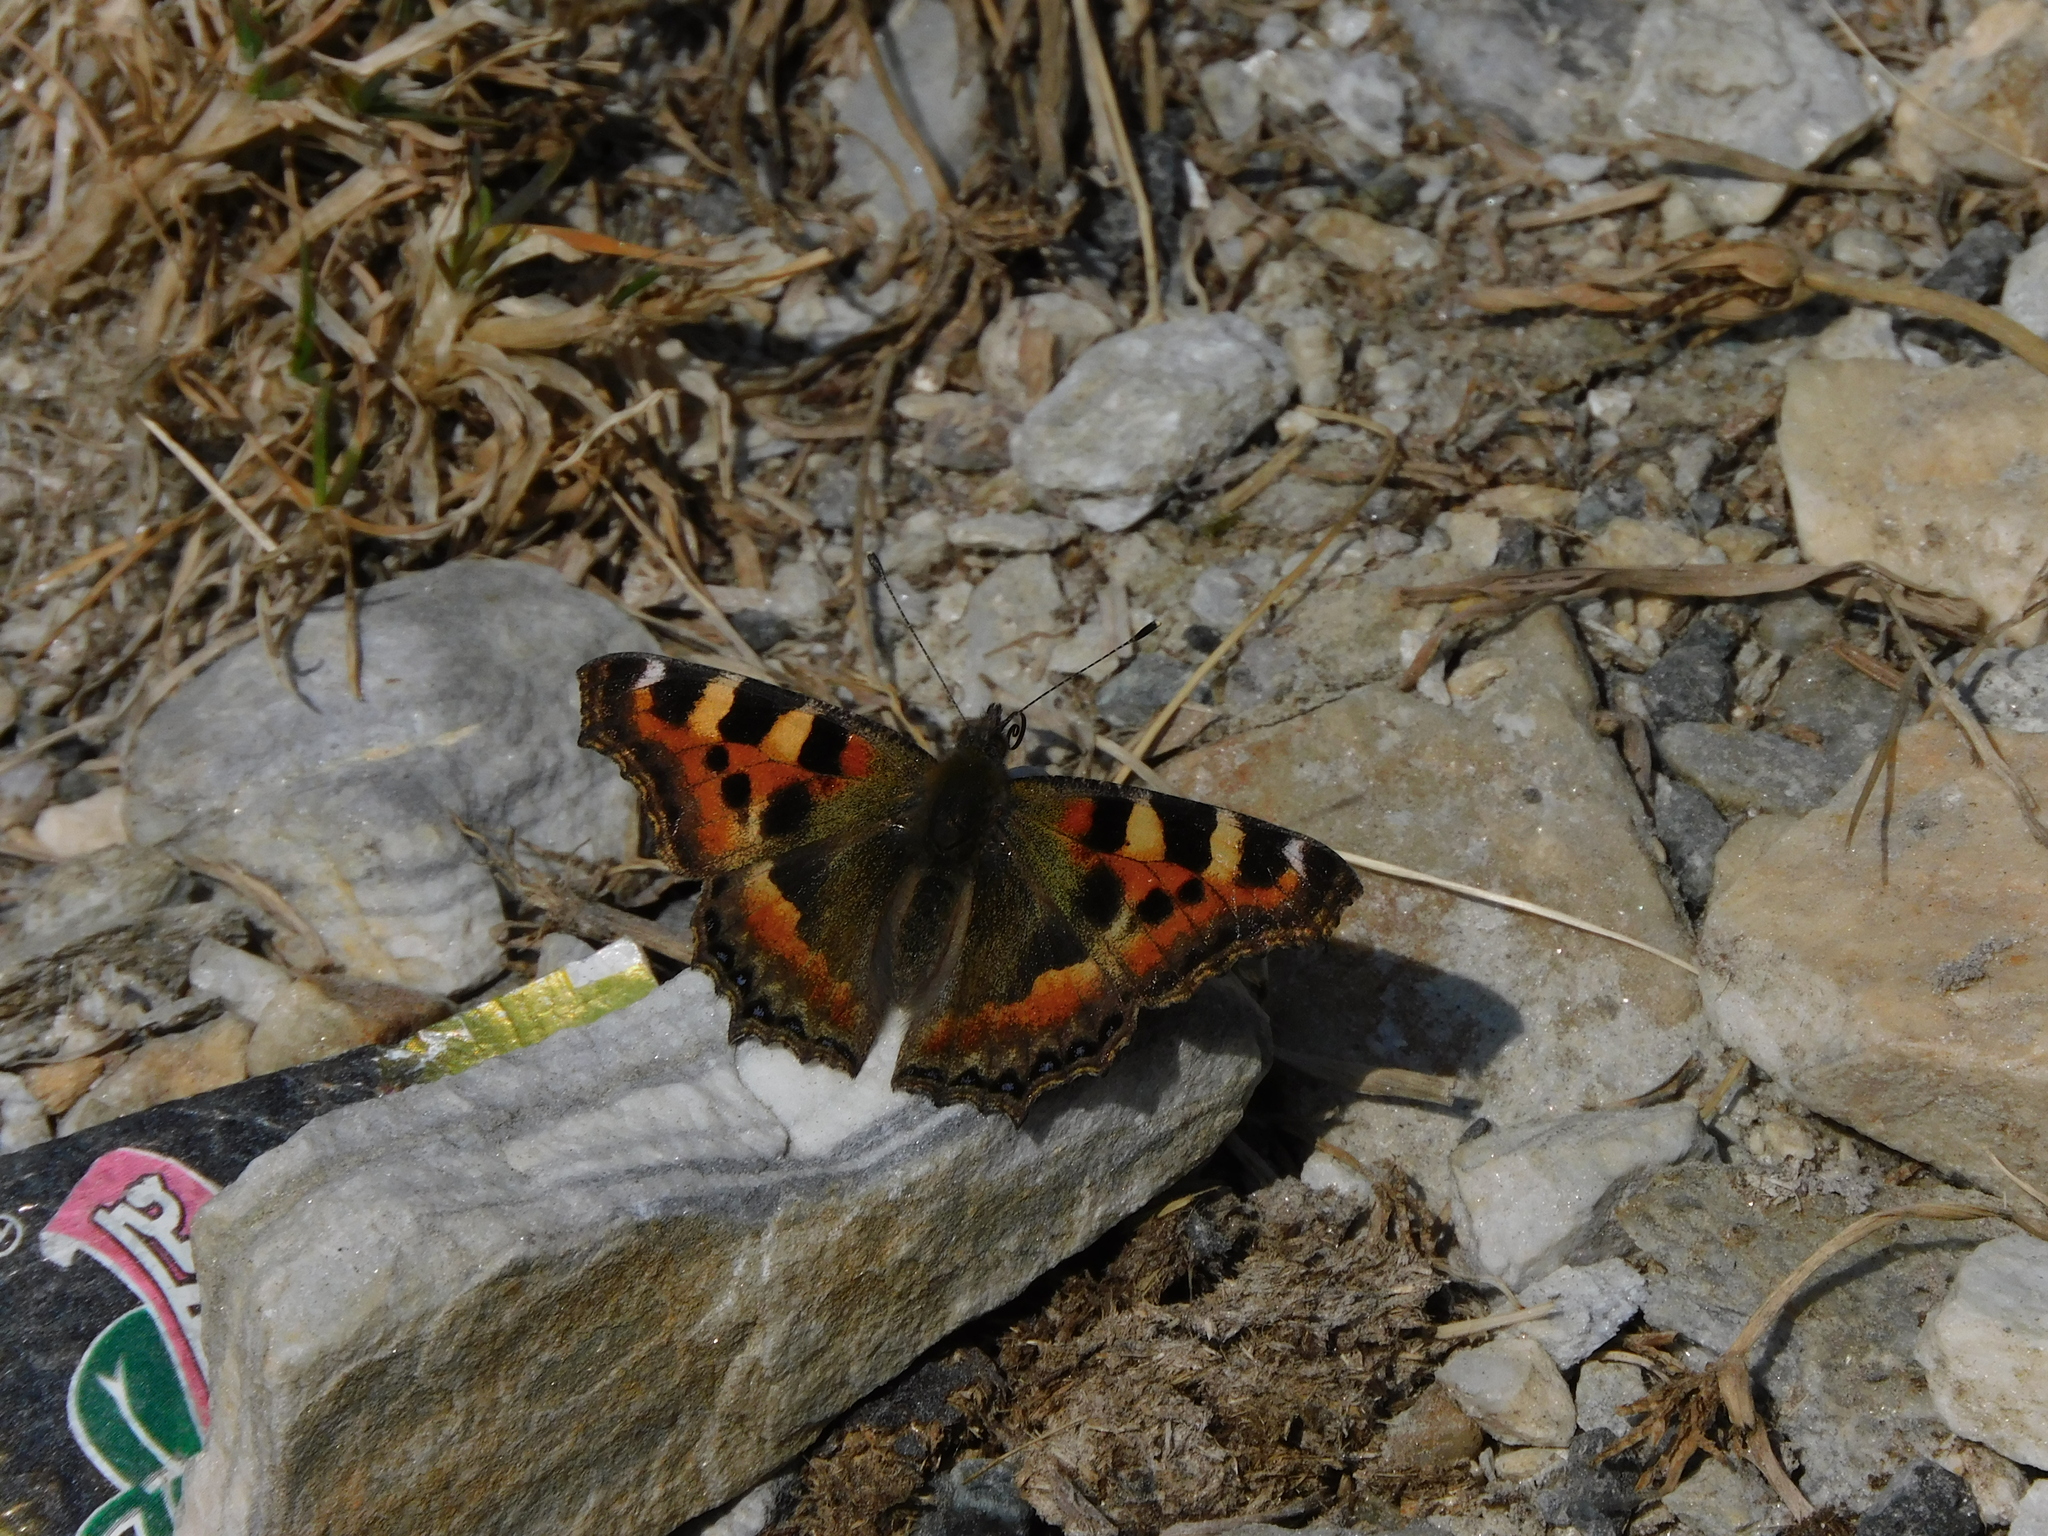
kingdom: Animalia
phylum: Arthropoda
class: Insecta
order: Lepidoptera
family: Nymphalidae
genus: Aglais
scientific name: Aglais caschmirensis
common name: Indian tortoiseshell
